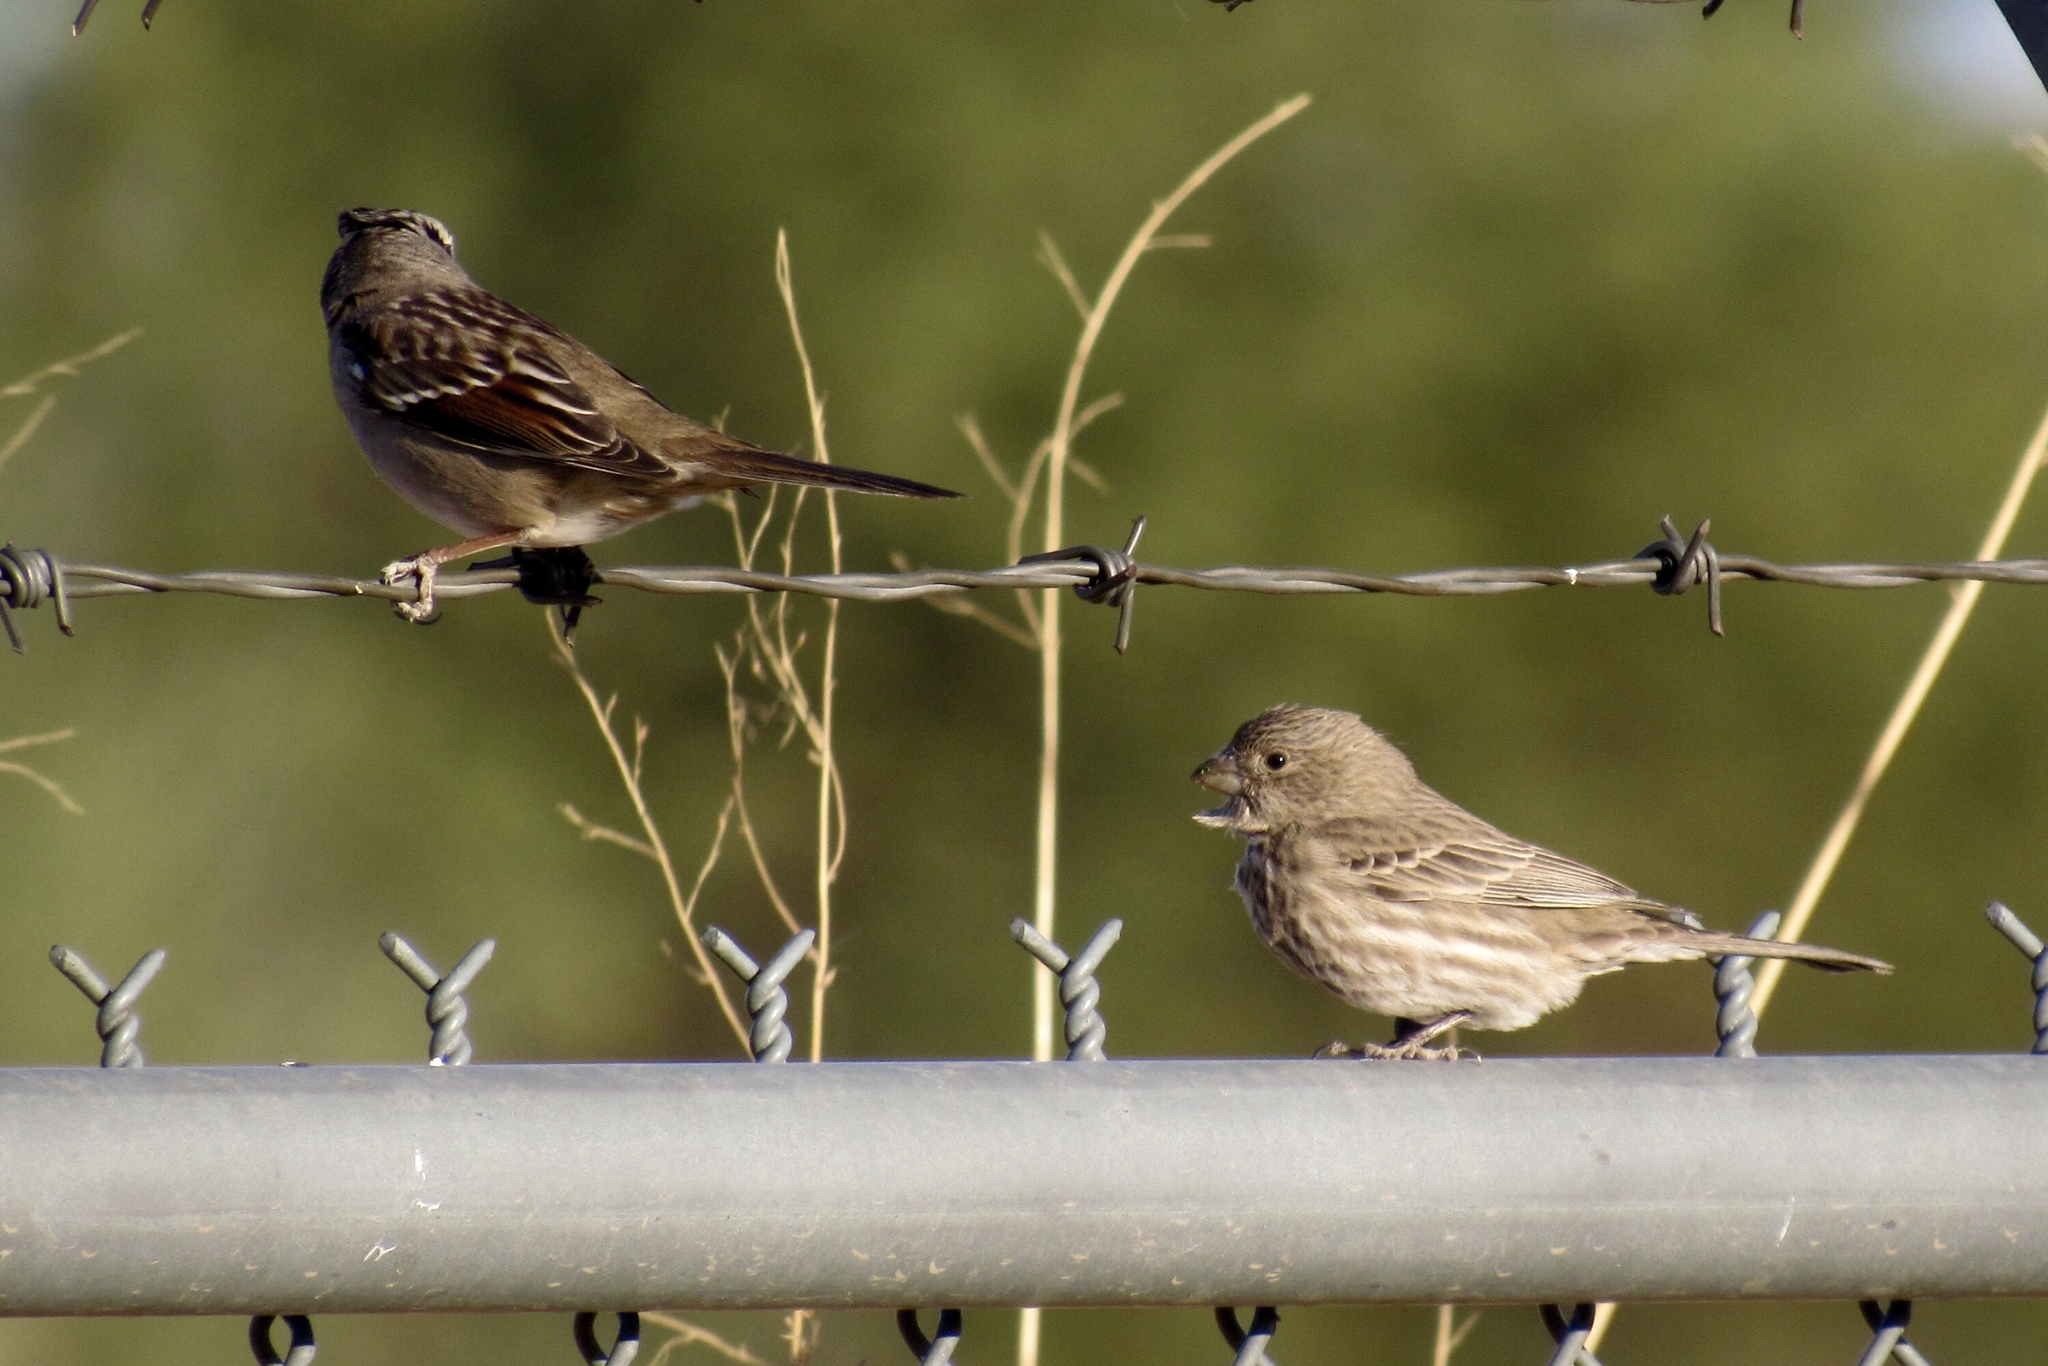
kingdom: Animalia
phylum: Chordata
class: Aves
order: Passeriformes
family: Passerellidae
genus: Zonotrichia
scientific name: Zonotrichia leucophrys
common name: White-crowned sparrow
